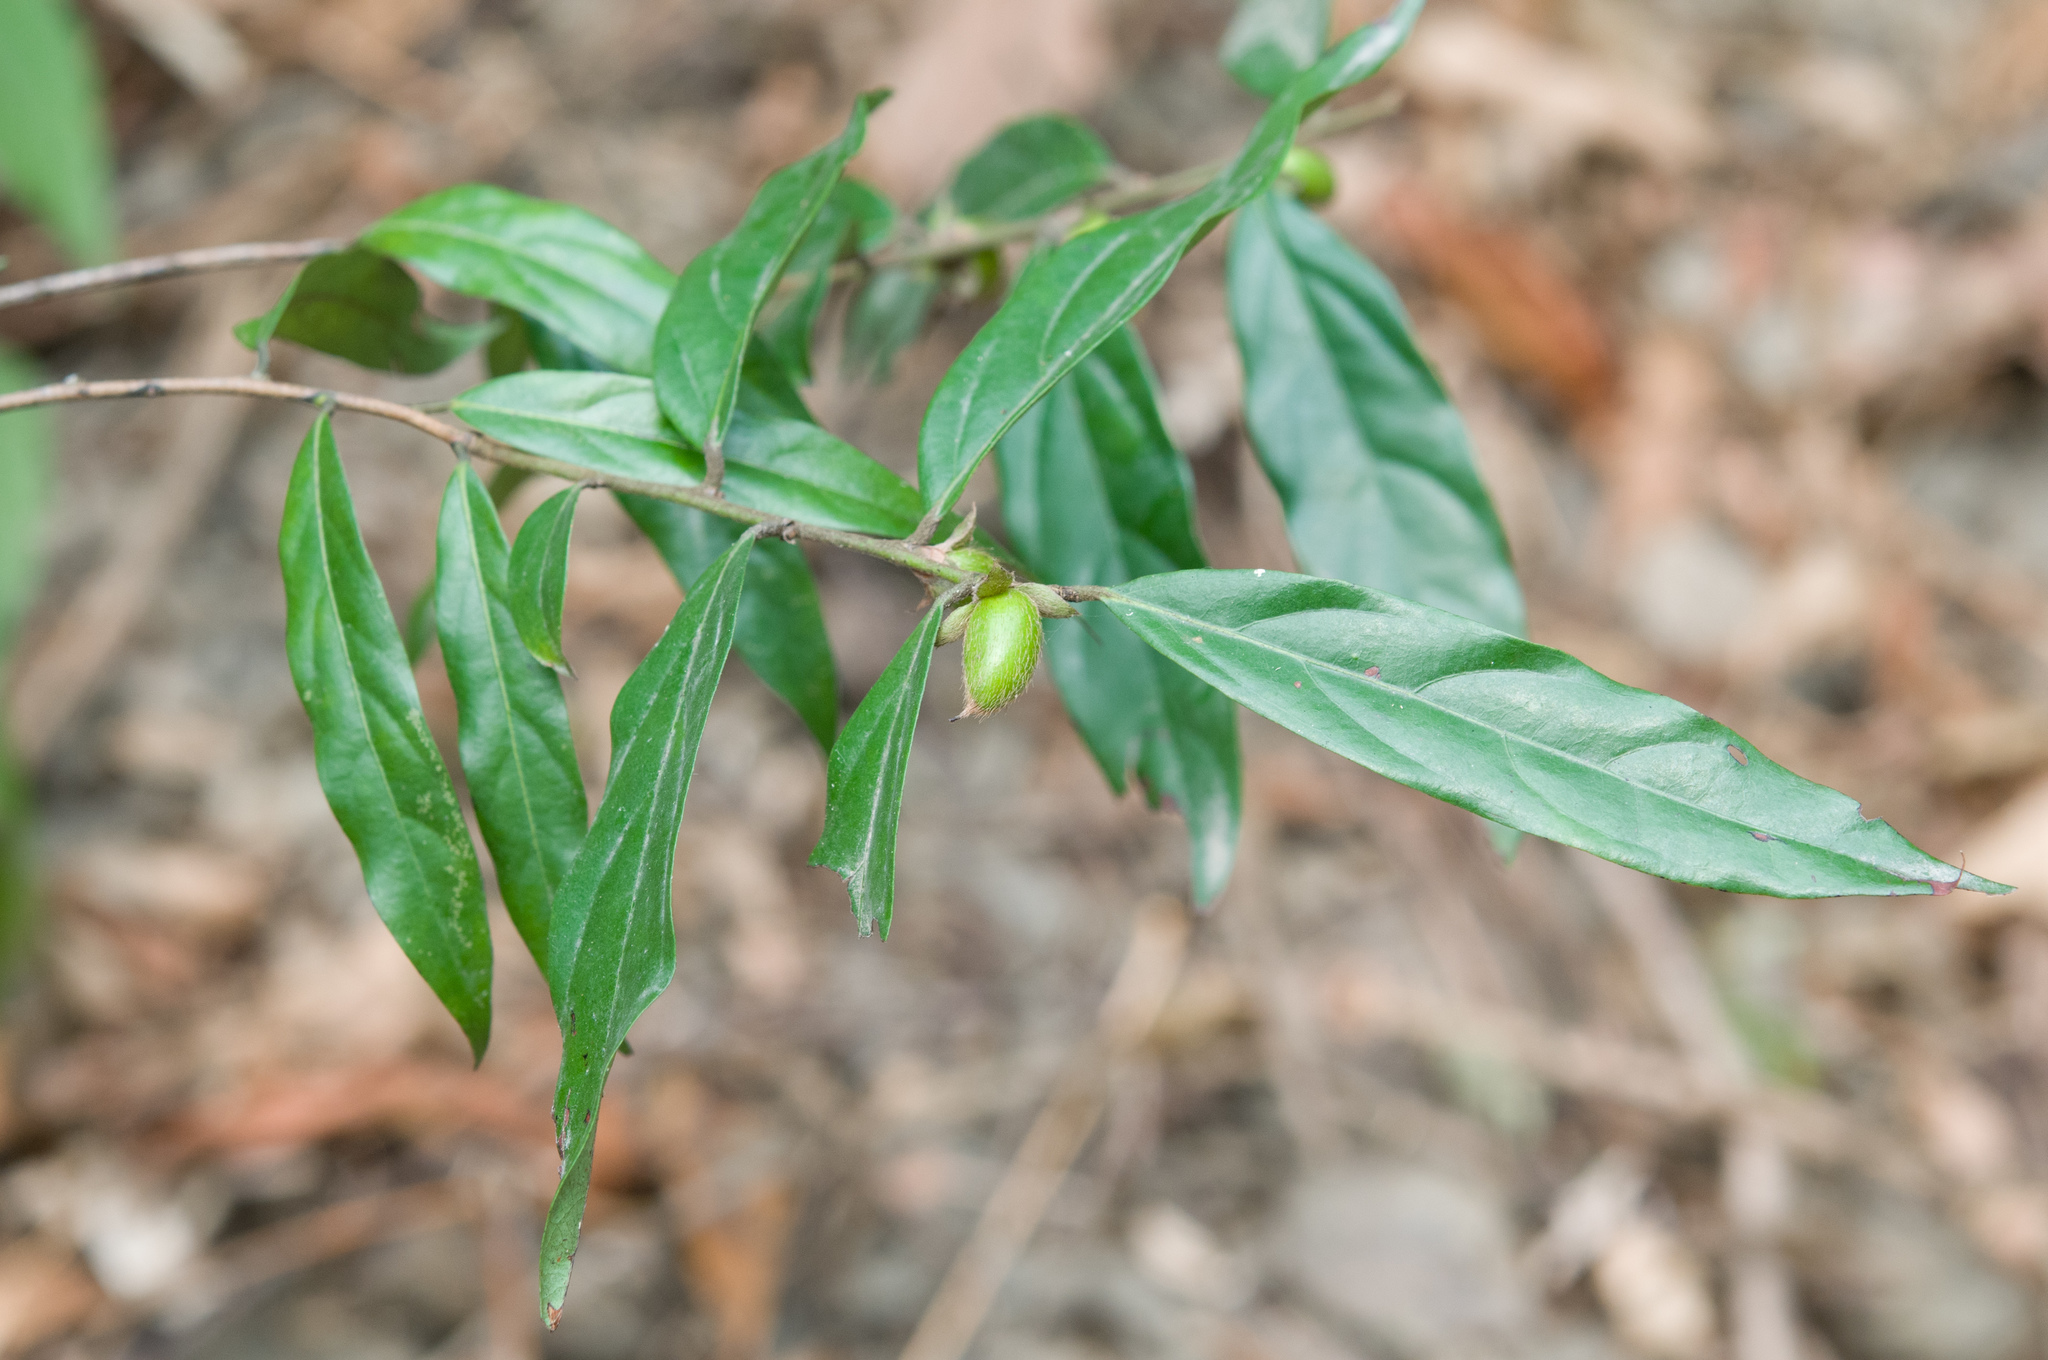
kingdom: Plantae
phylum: Tracheophyta
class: Magnoliopsida
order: Ericales
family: Ebenaceae
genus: Diospyros
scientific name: Diospyros eriantha
